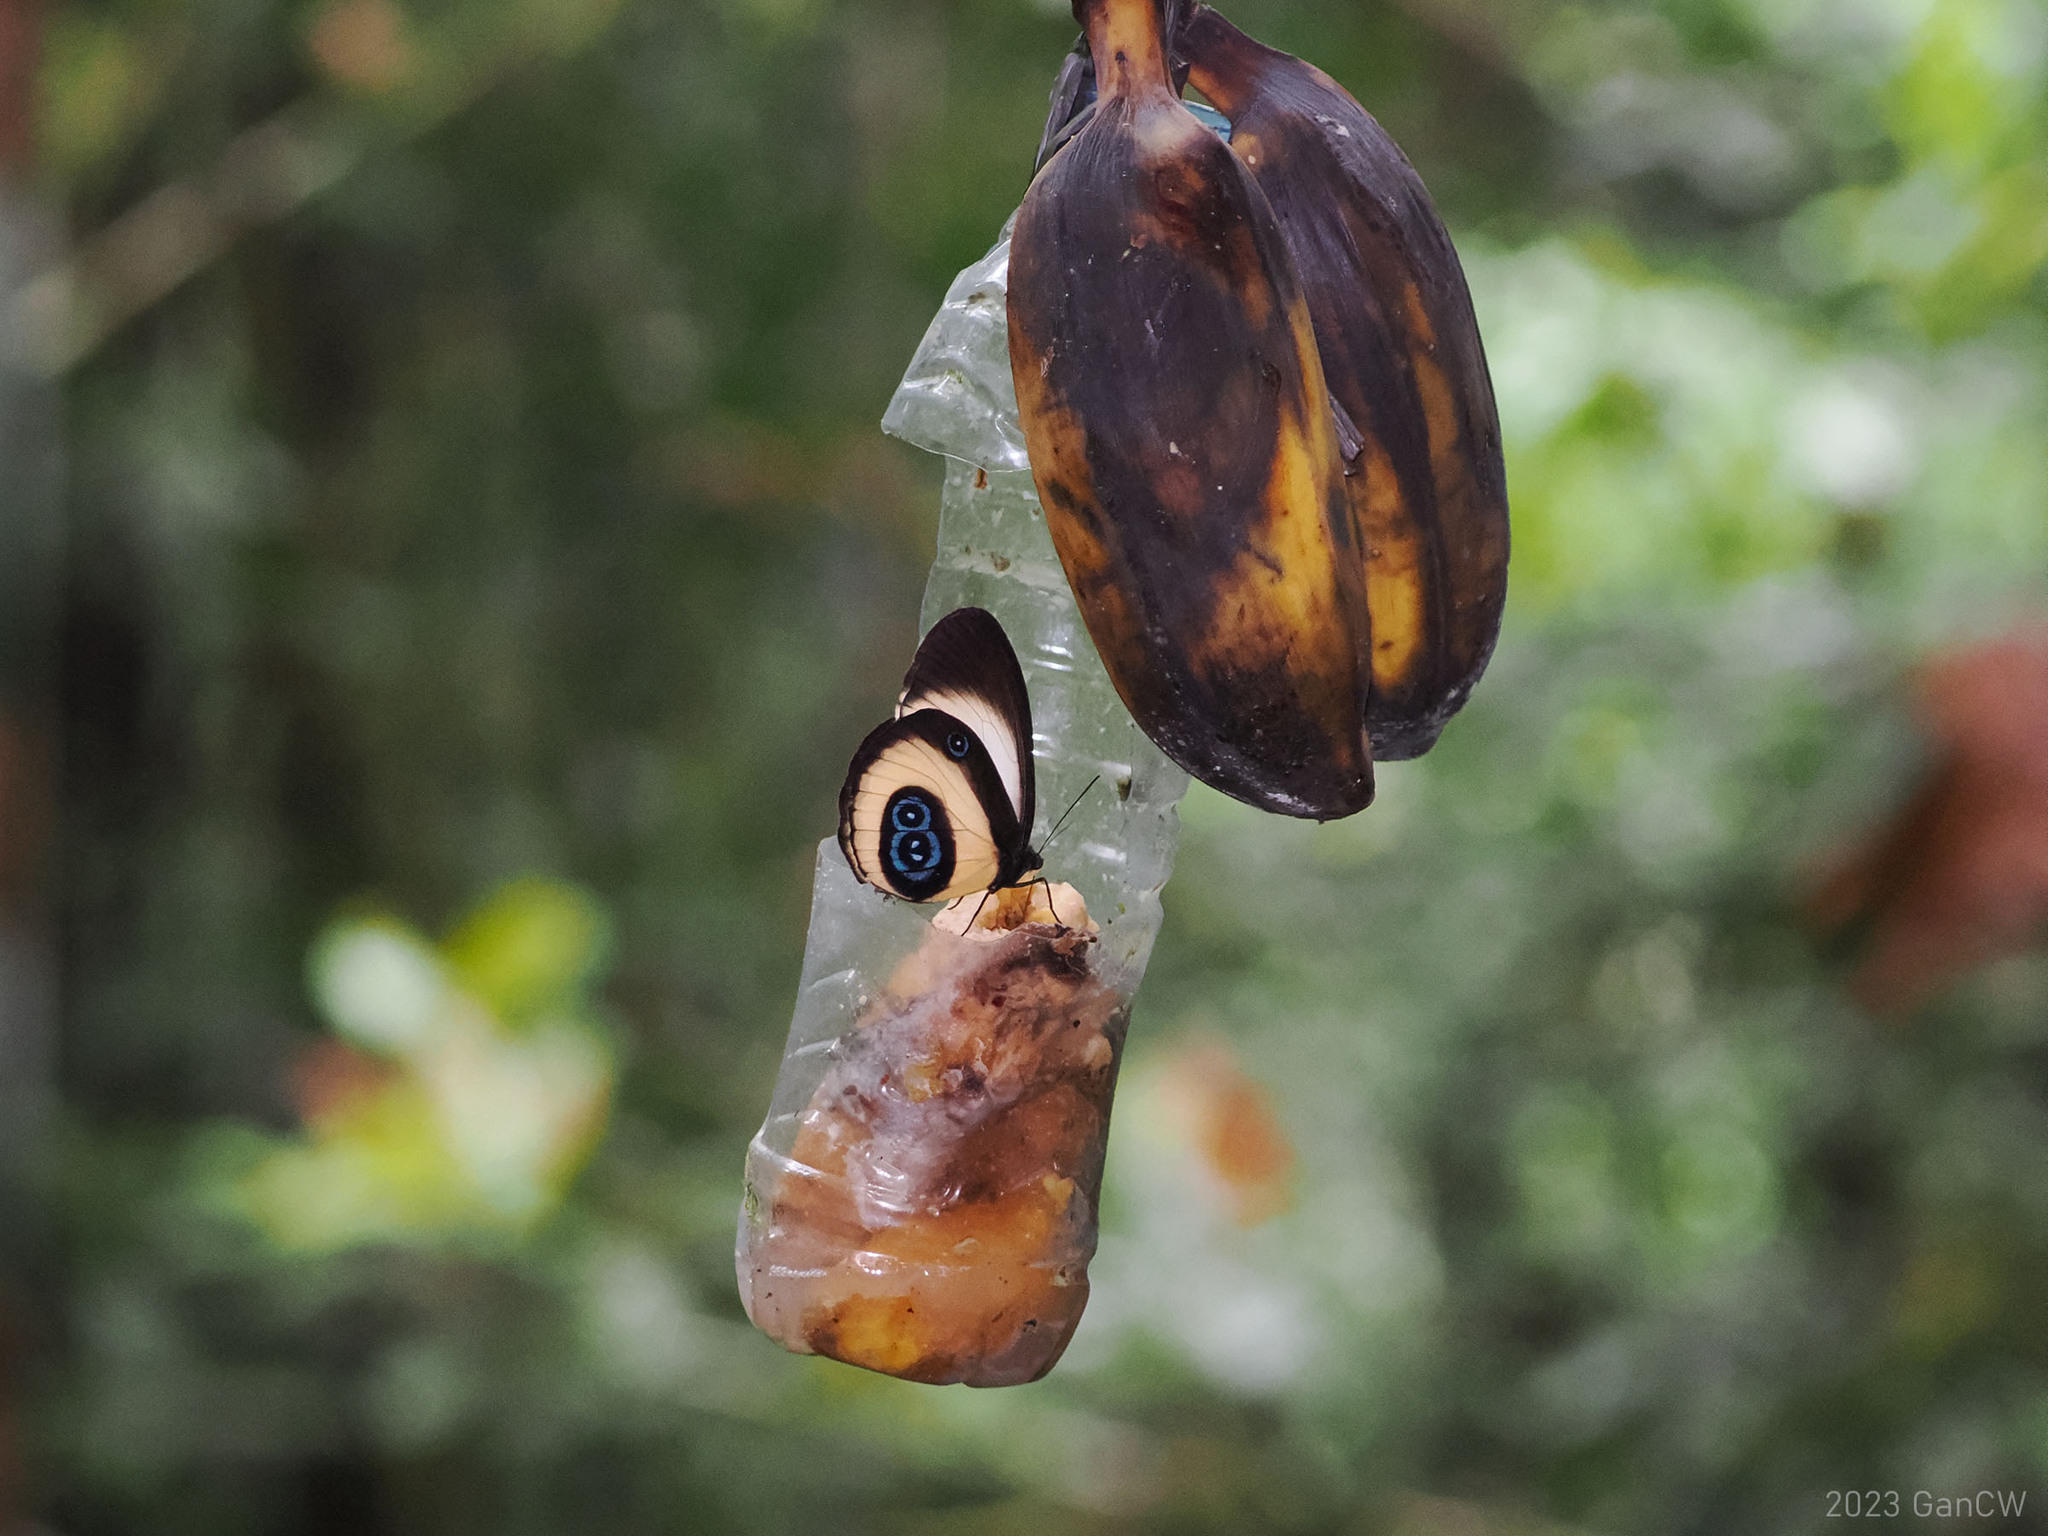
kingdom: Animalia
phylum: Arthropoda
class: Insecta
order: Lepidoptera
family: Nymphalidae
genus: Taenaris
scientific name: Taenaris bioculata
